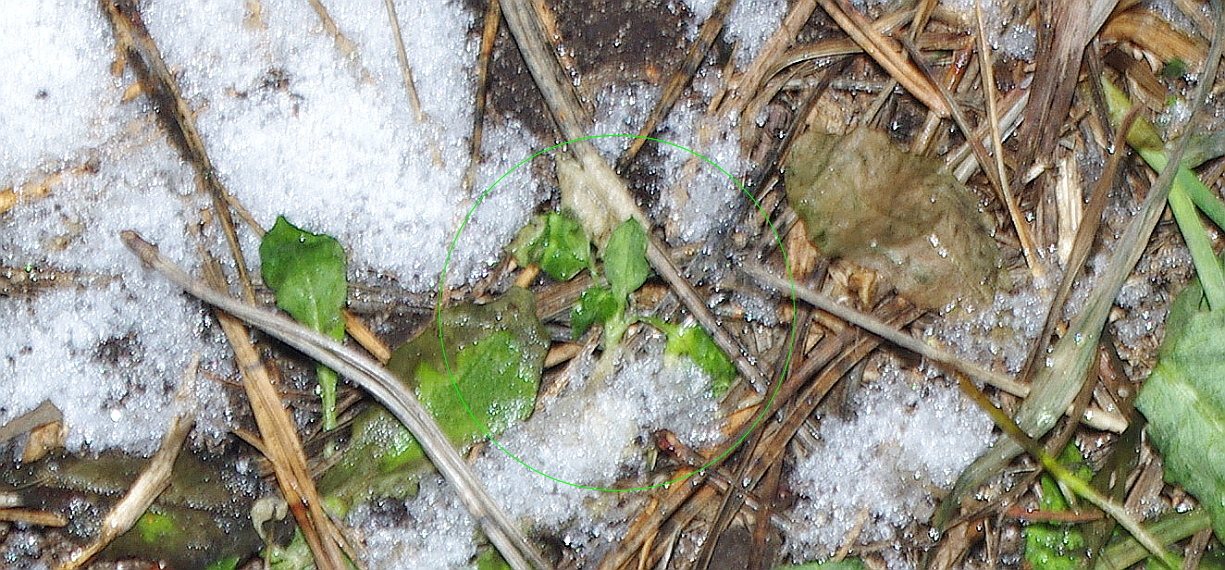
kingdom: Plantae
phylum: Tracheophyta
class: Magnoliopsida
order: Caryophyllales
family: Caryophyllaceae
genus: Stellaria
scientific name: Stellaria media
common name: Common chickweed
